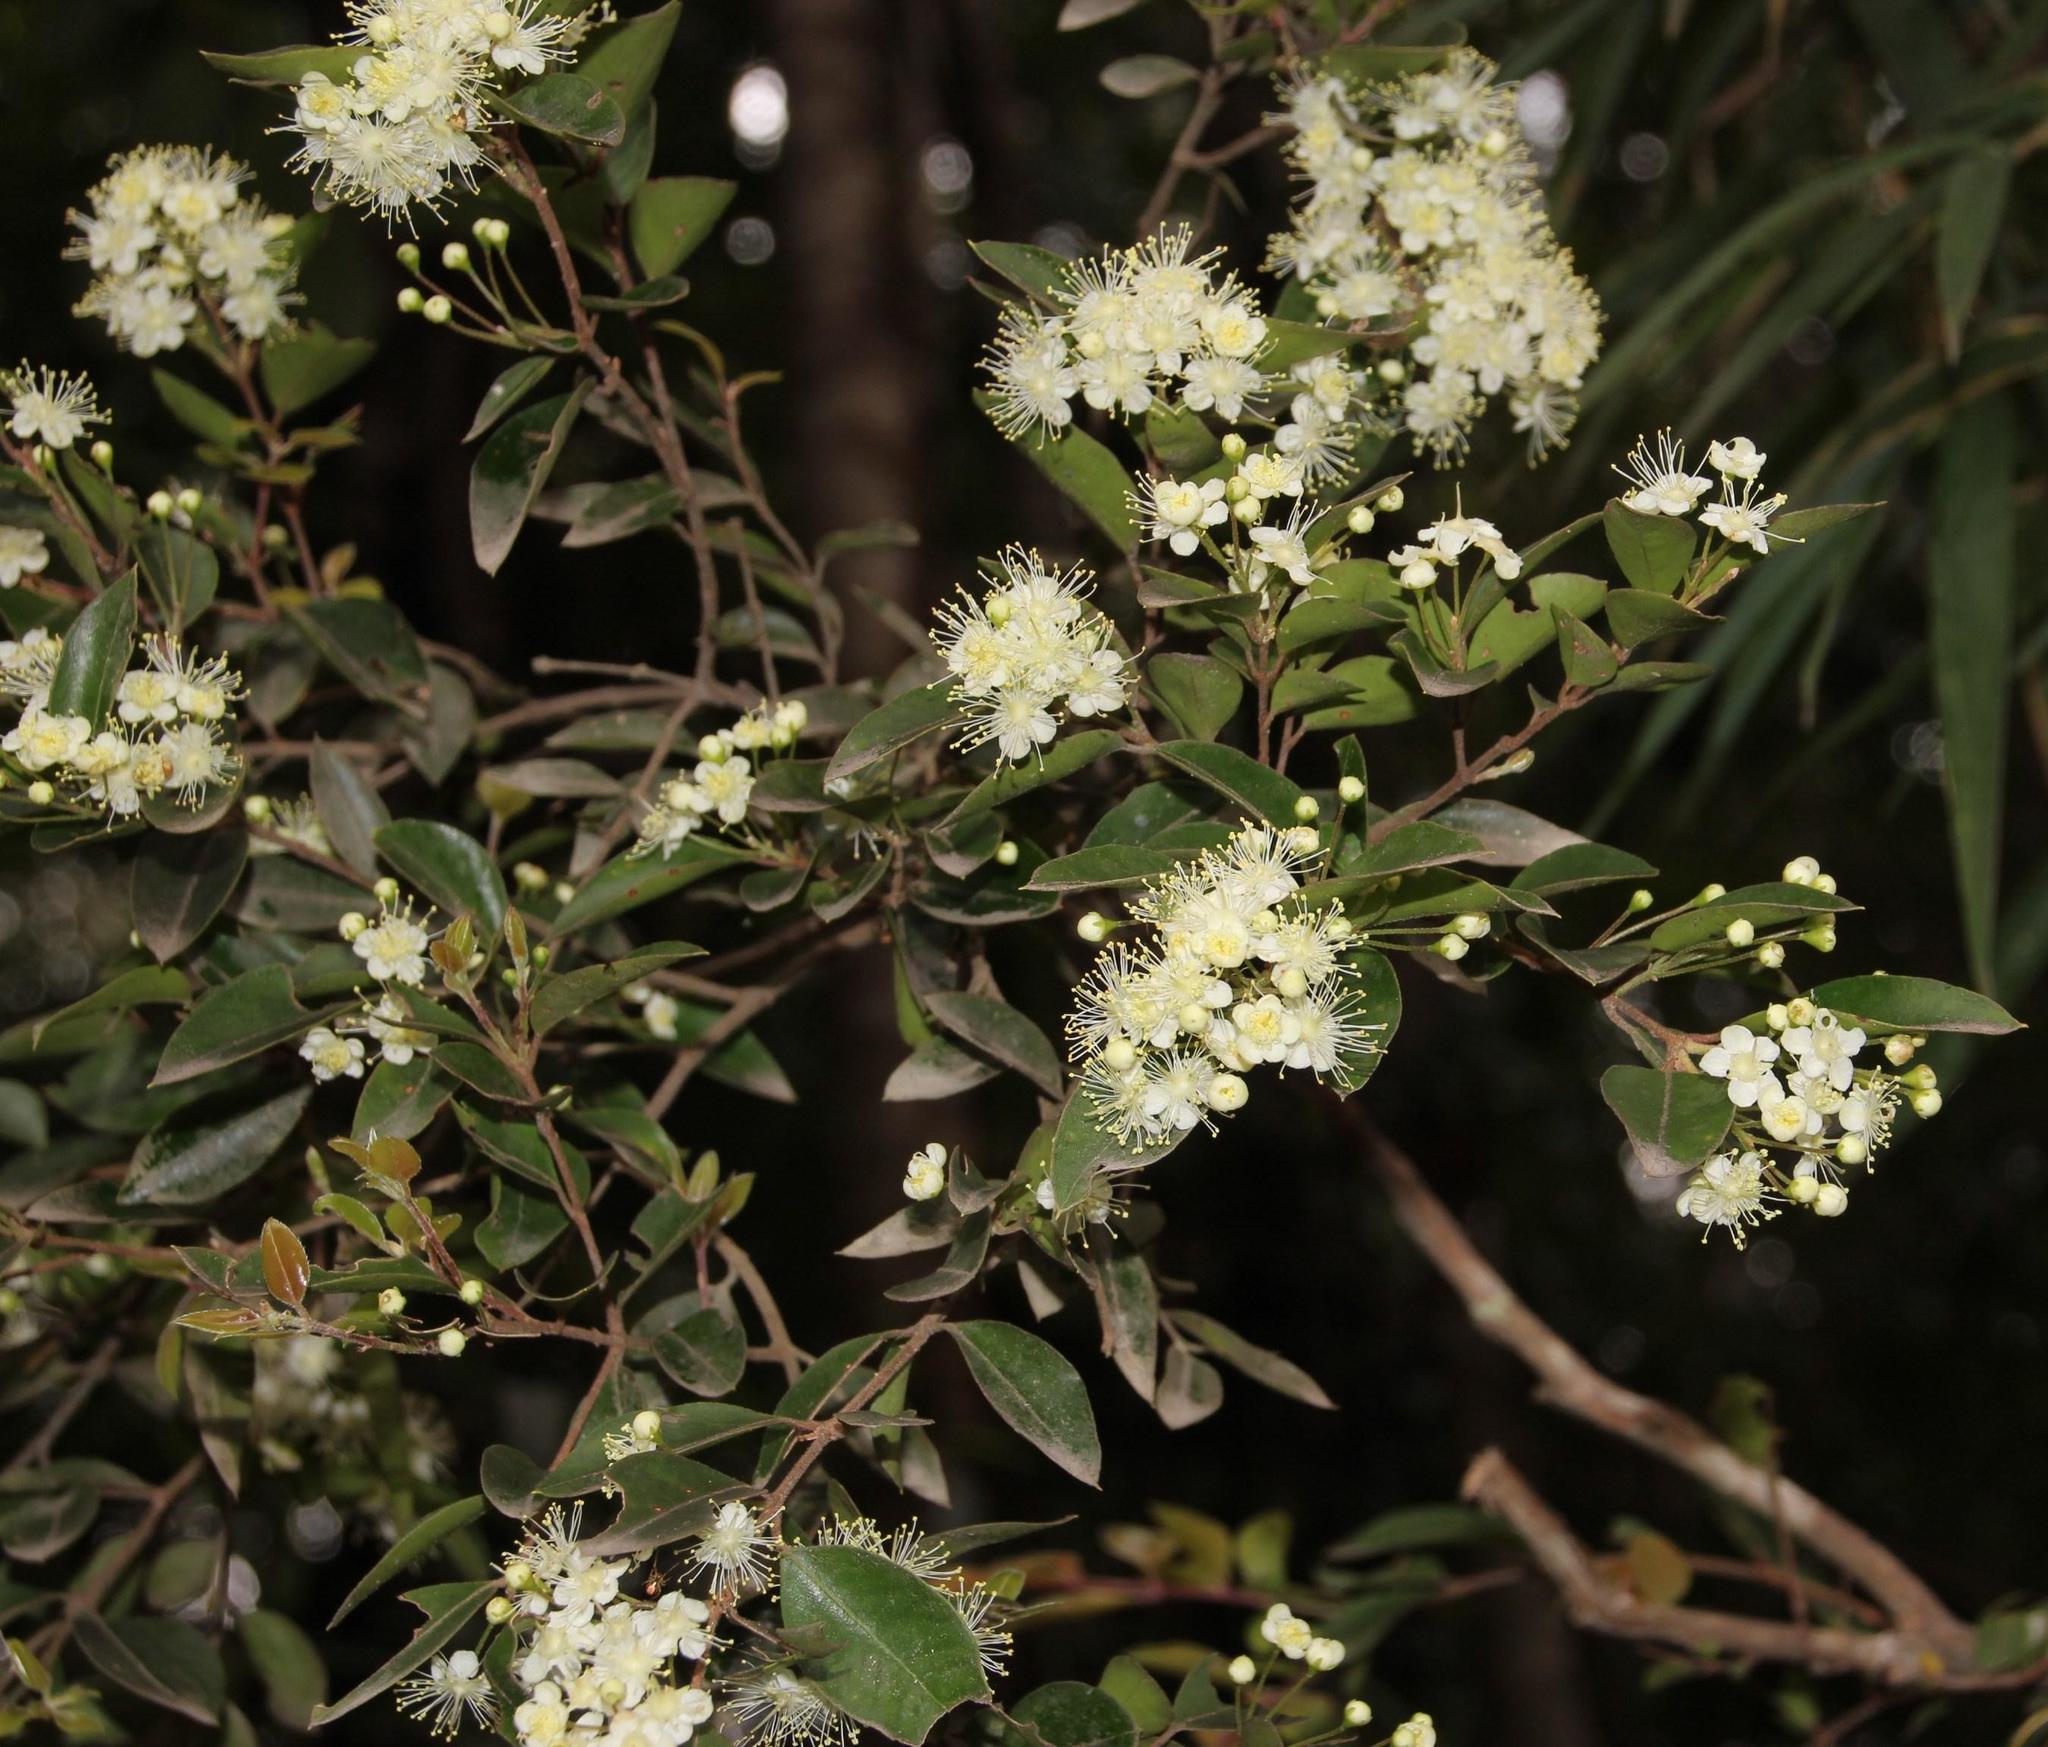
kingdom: Plantae
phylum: Tracheophyta
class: Magnoliopsida
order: Myrtales
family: Myrtaceae
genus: Amomyrtus
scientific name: Amomyrtus luma
